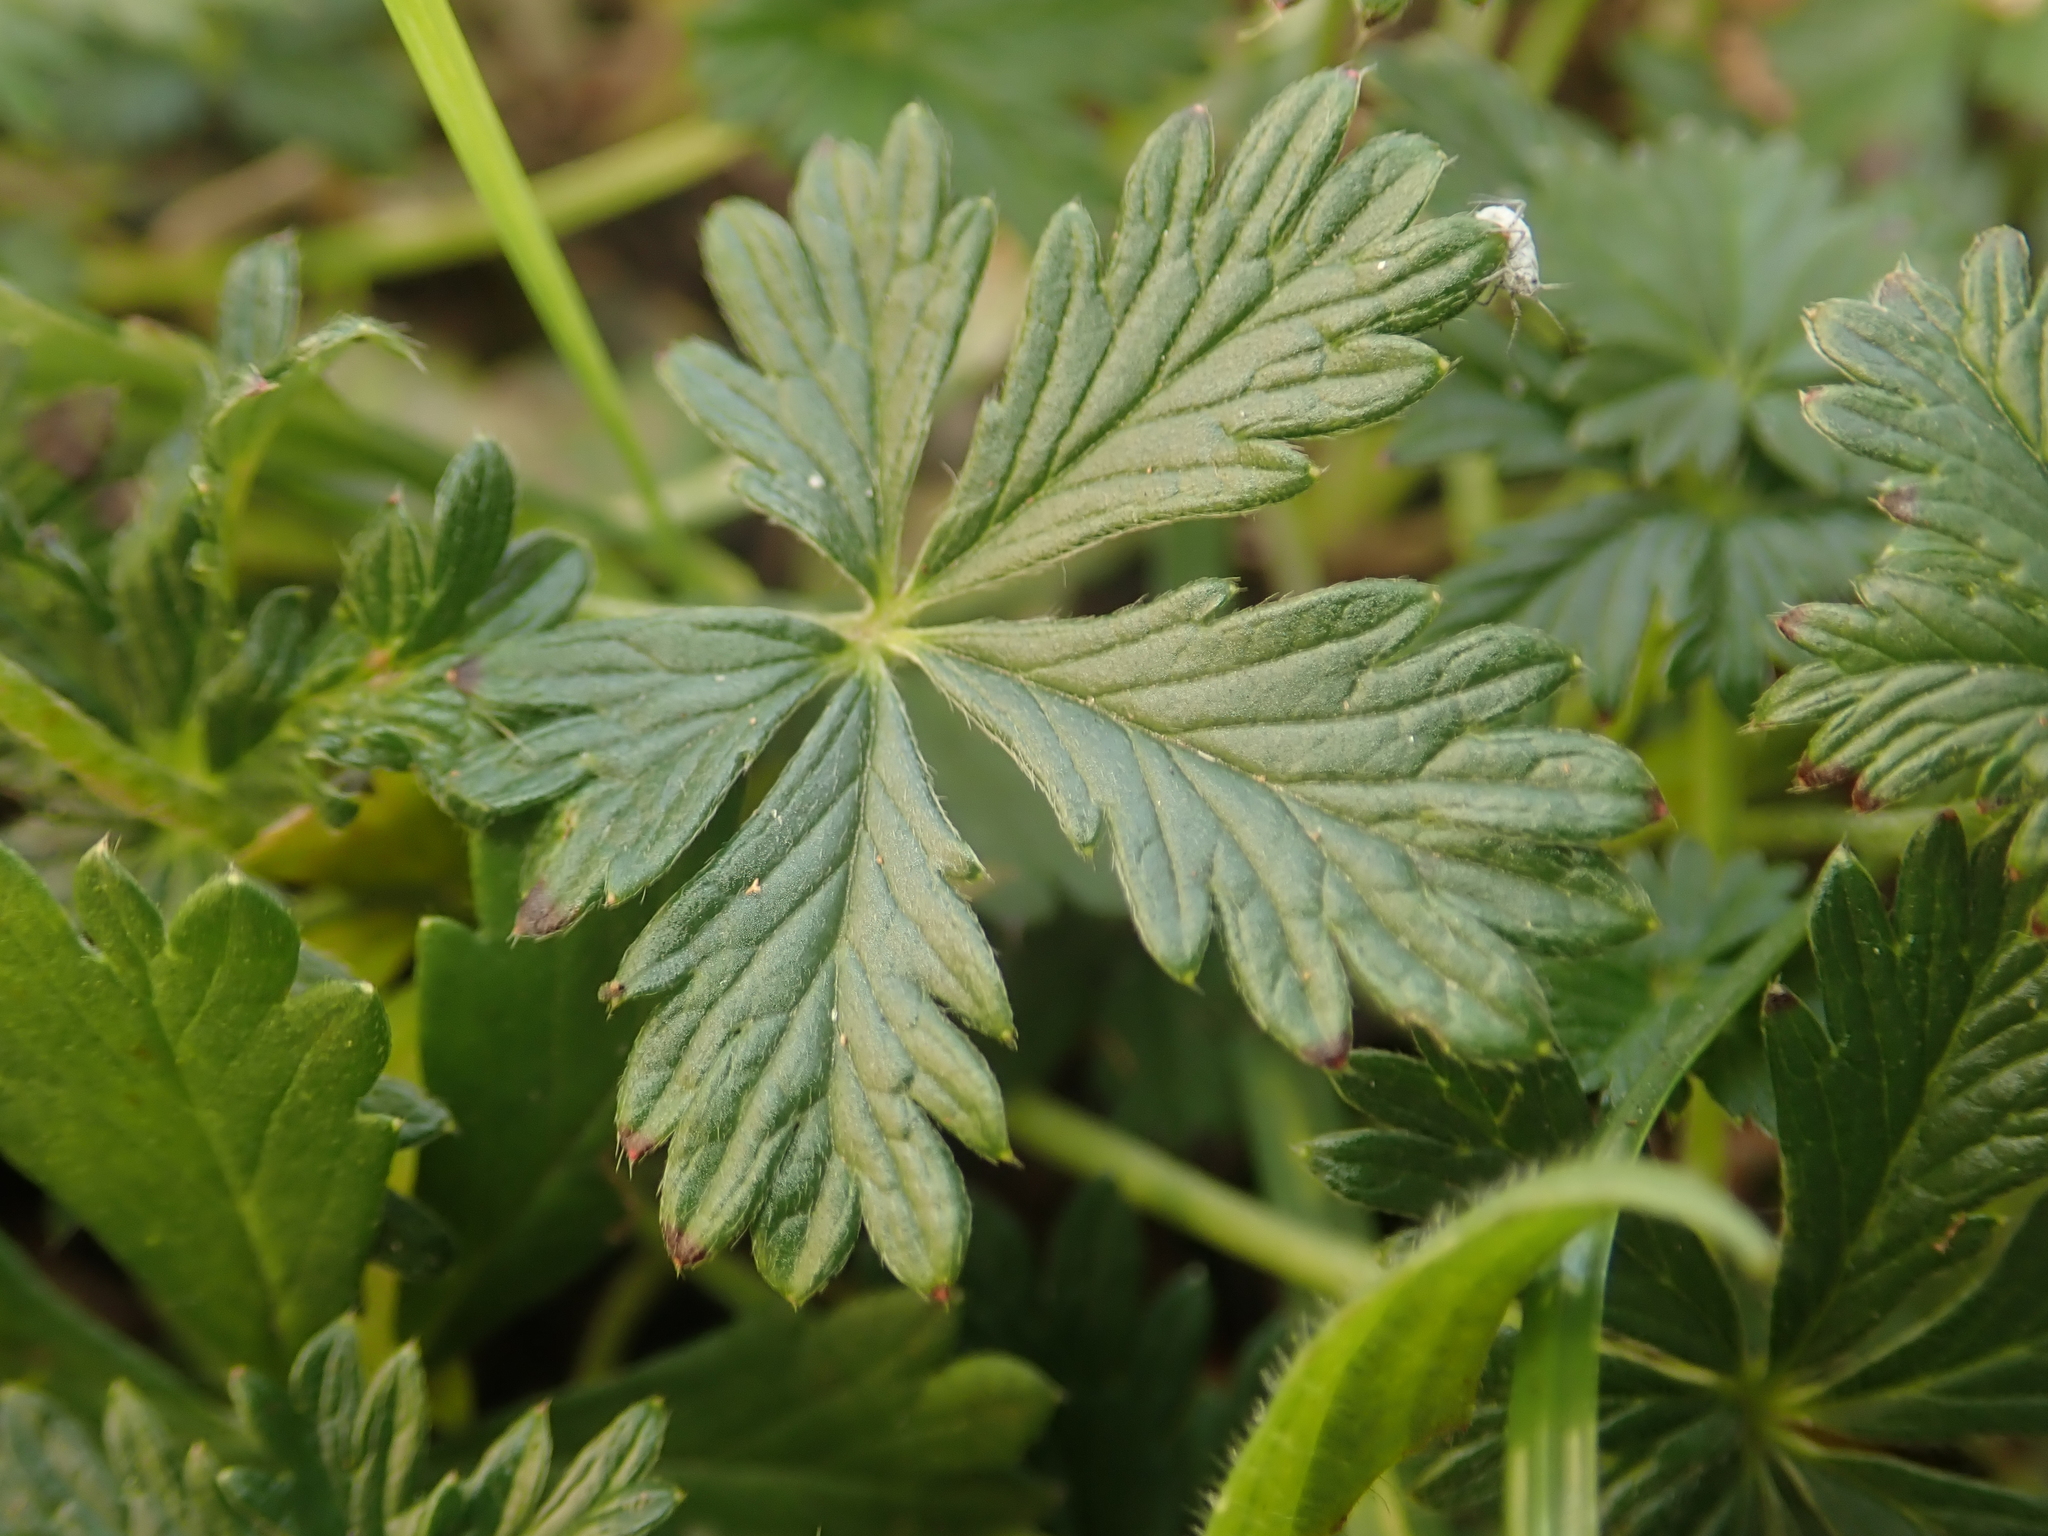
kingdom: Plantae
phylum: Tracheophyta
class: Magnoliopsida
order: Rosales
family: Rosaceae
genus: Potentilla
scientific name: Potentilla argentea
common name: Hoary cinquefoil
